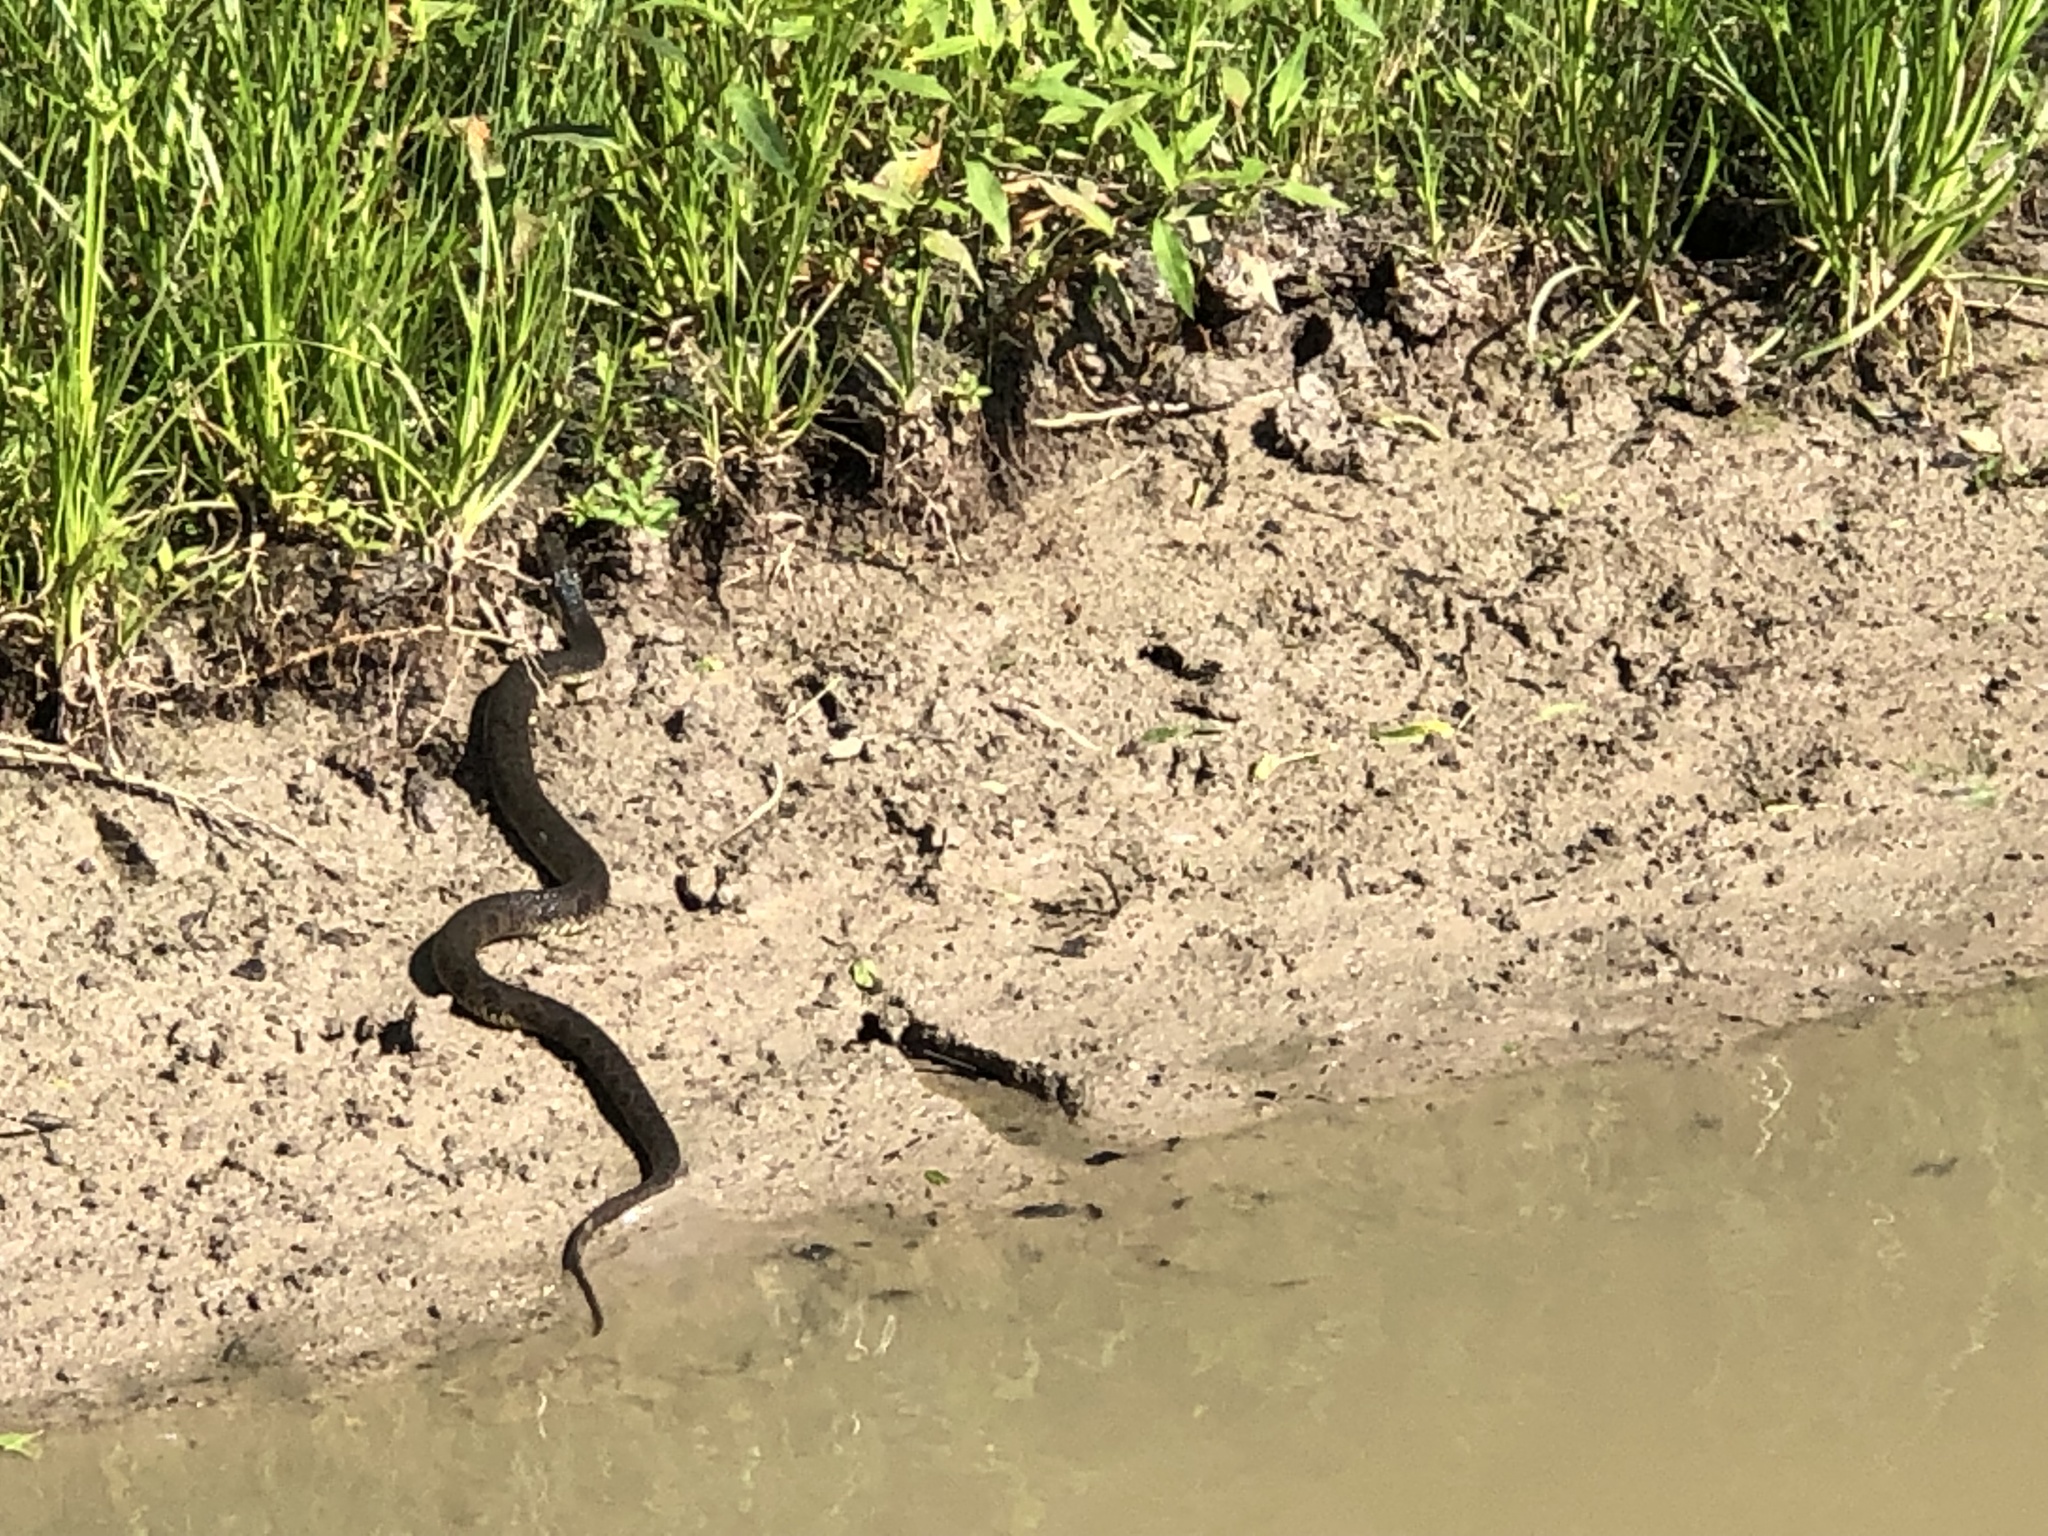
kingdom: Animalia
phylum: Chordata
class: Squamata
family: Colubridae
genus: Nerodia
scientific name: Nerodia erythrogaster
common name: Plainbelly water snake
